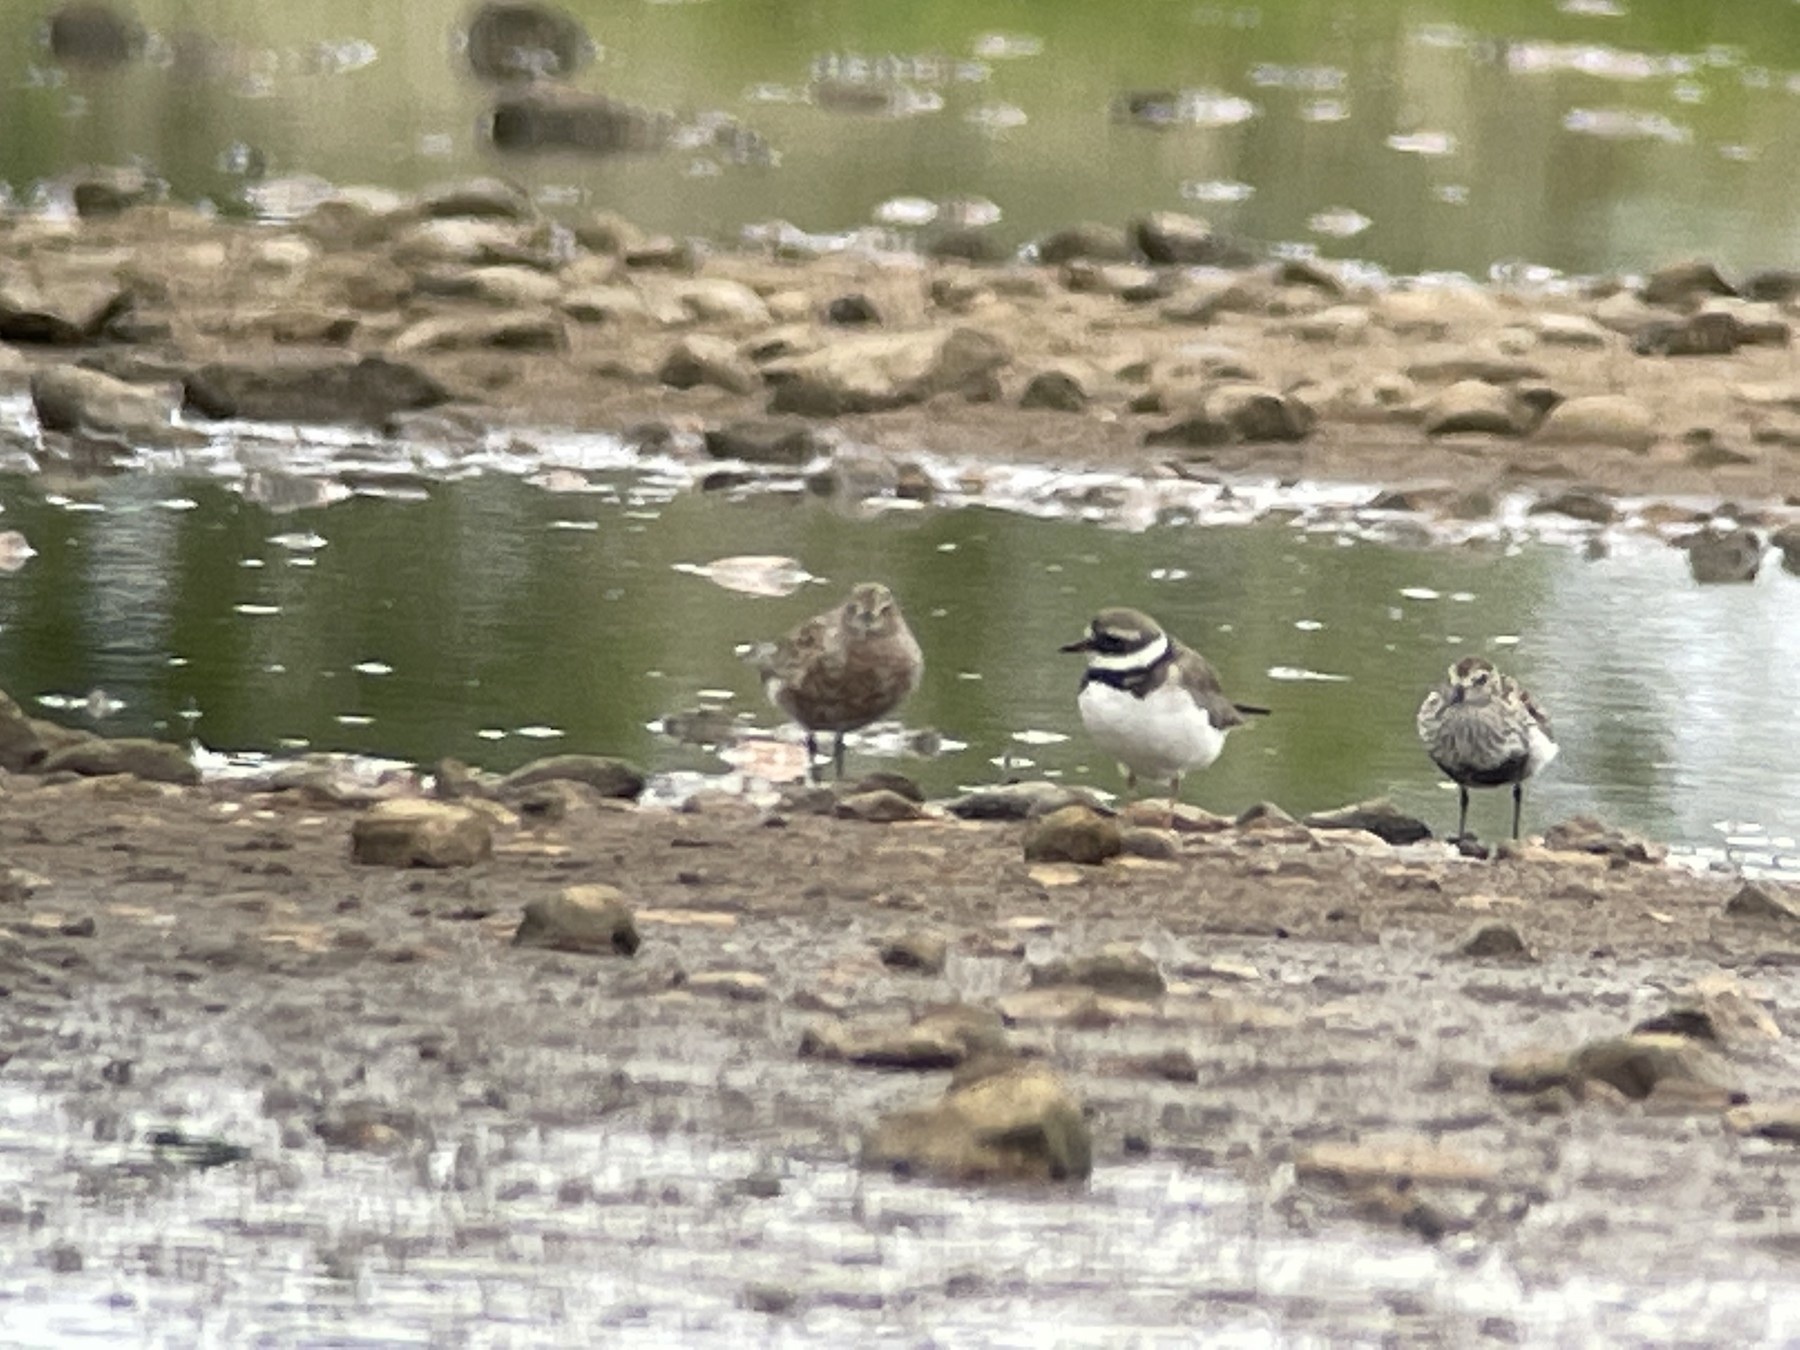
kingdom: Animalia
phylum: Chordata
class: Aves
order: Charadriiformes
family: Scolopacidae
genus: Calidris
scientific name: Calidris ferruginea
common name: Curlew sandpiper
